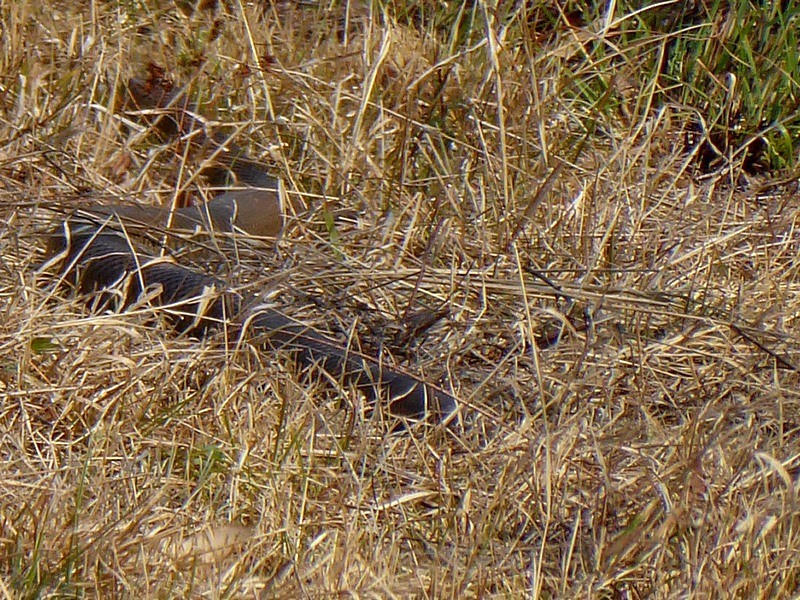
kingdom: Animalia
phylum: Chordata
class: Squamata
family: Elapidae
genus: Pseudonaja
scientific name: Pseudonaja textilis
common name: Eastern brown snake
